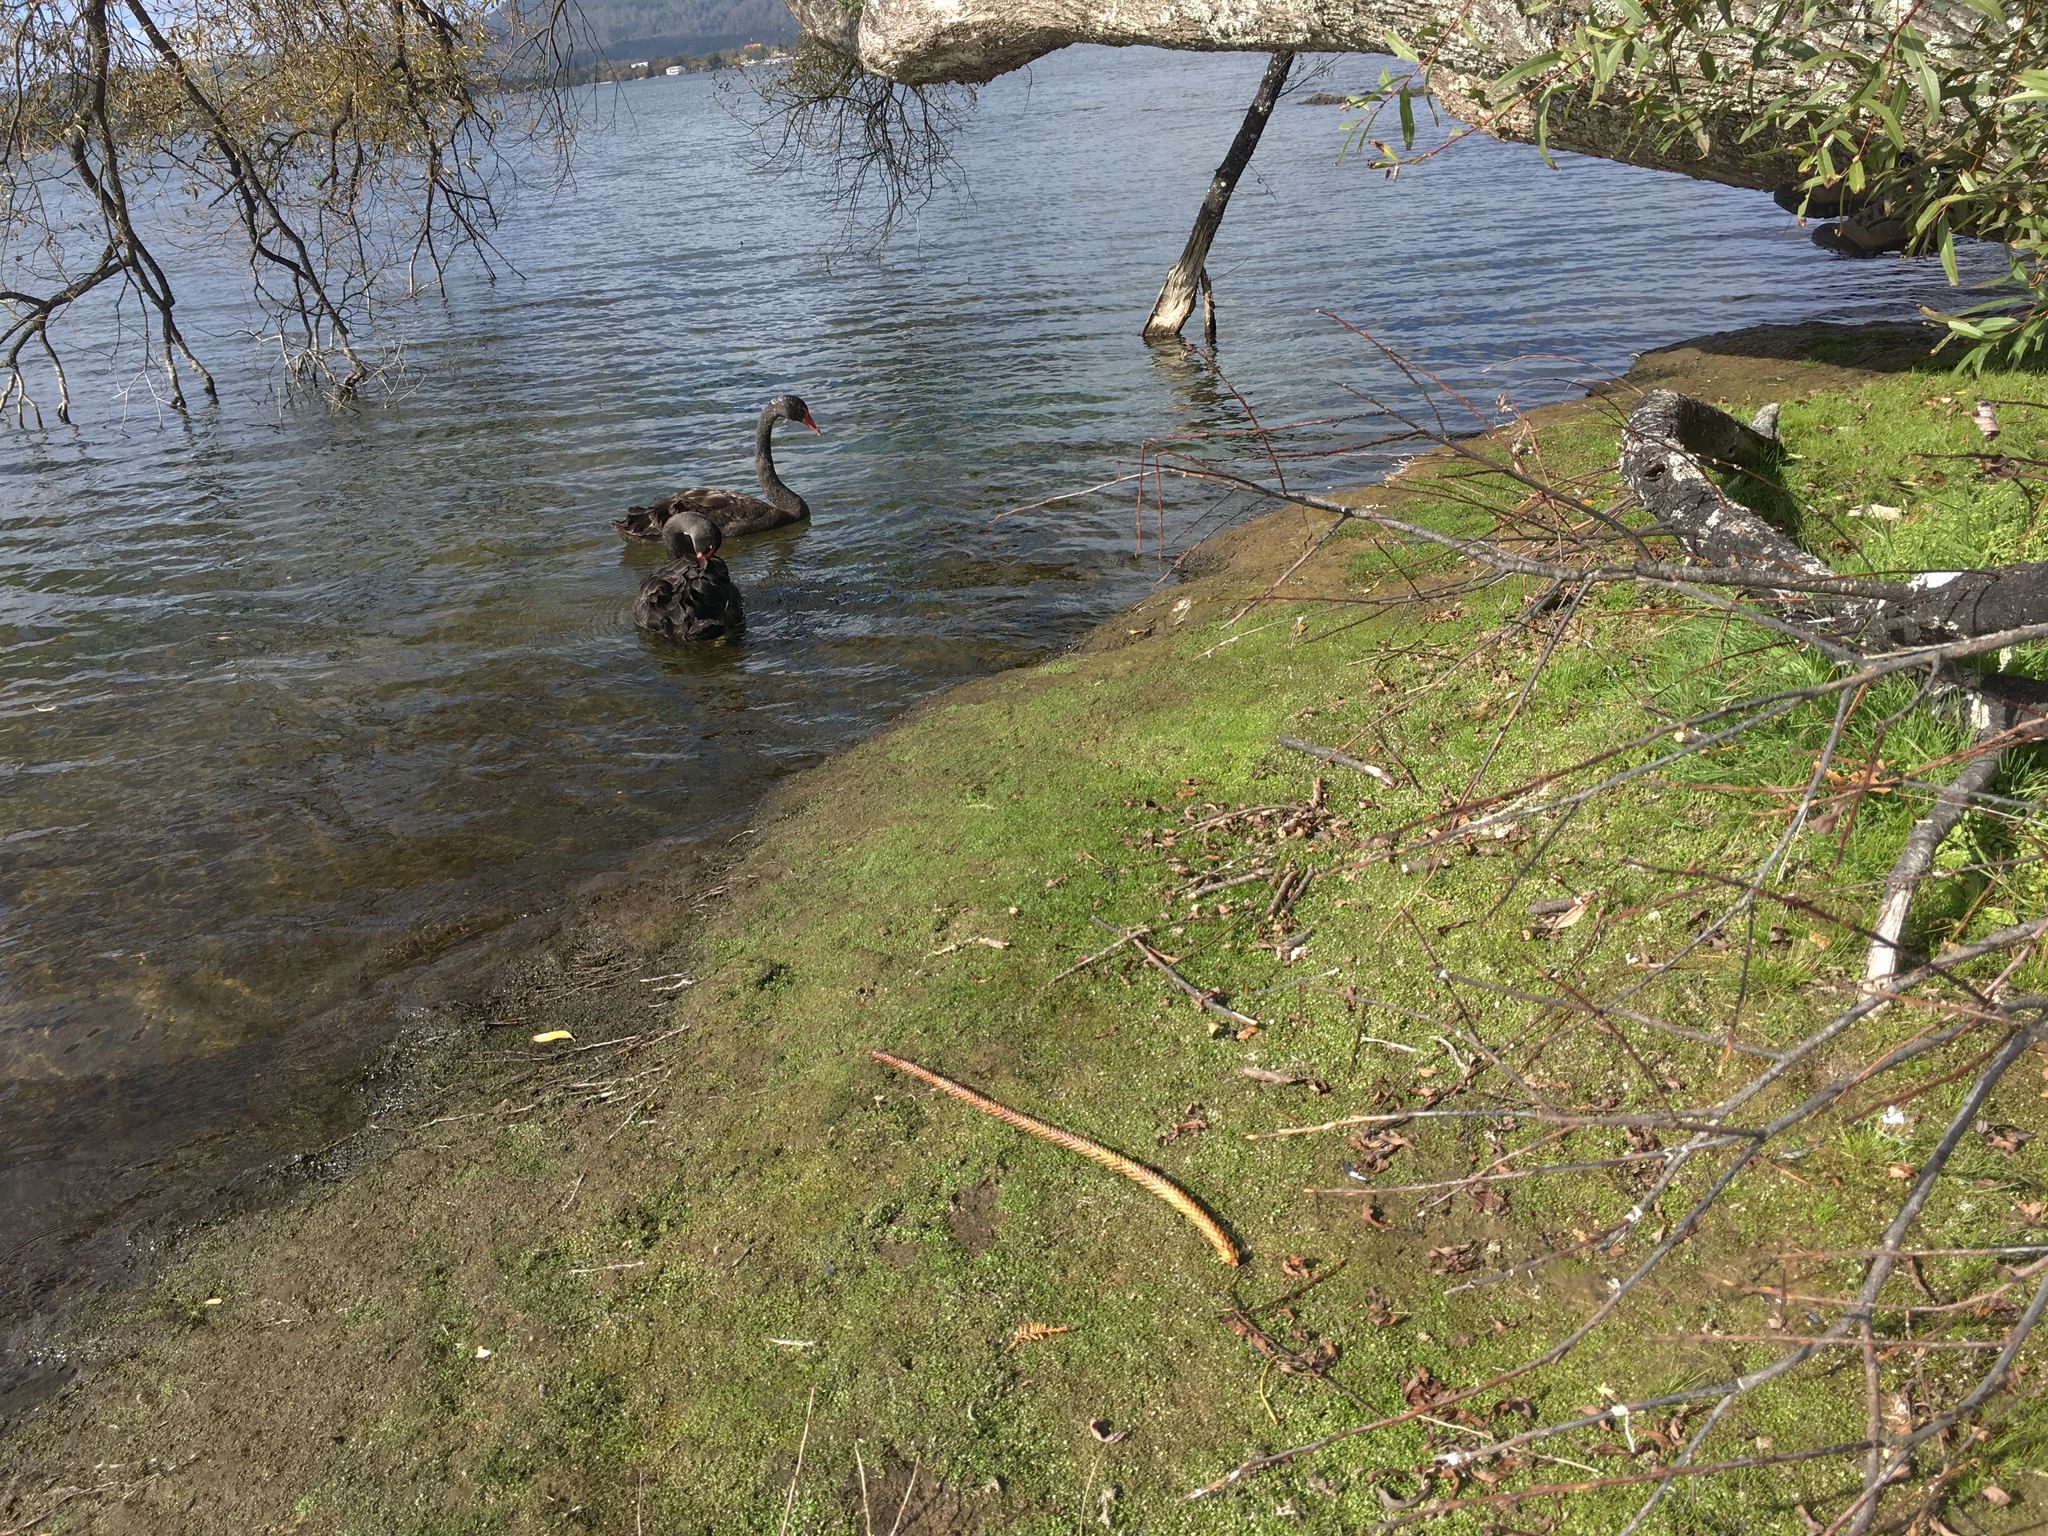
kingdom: Plantae
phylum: Tracheophyta
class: Magnoliopsida
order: Lamiales
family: Phrymaceae
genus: Glossostigma
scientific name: Glossostigma elatinoides
